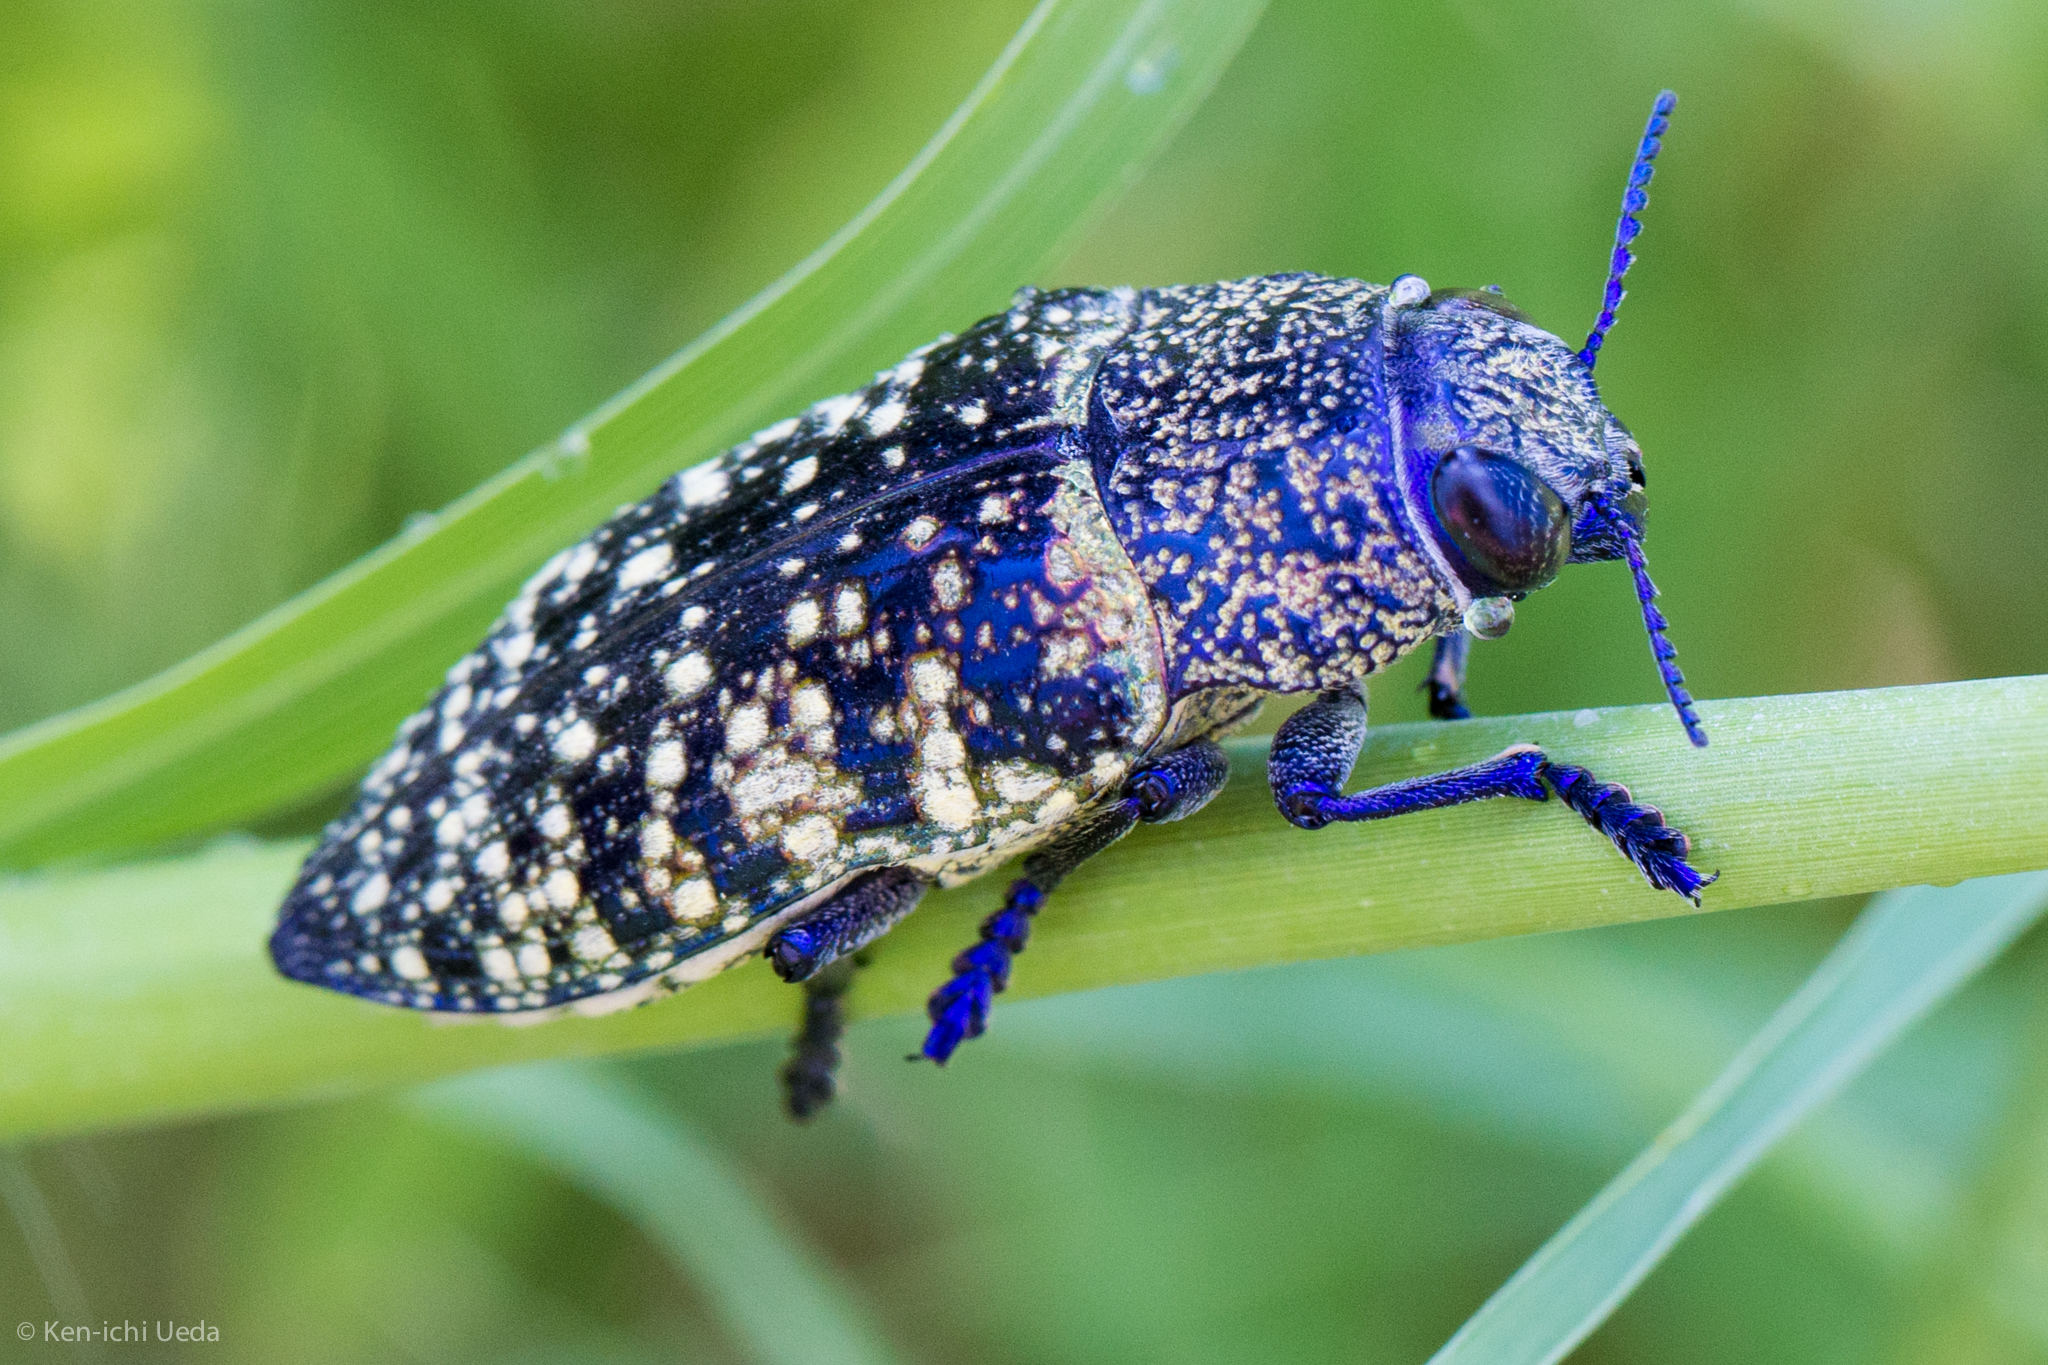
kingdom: Animalia
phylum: Arthropoda
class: Insecta
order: Coleoptera
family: Buprestidae
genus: Lampetis
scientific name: Lampetis webbii
